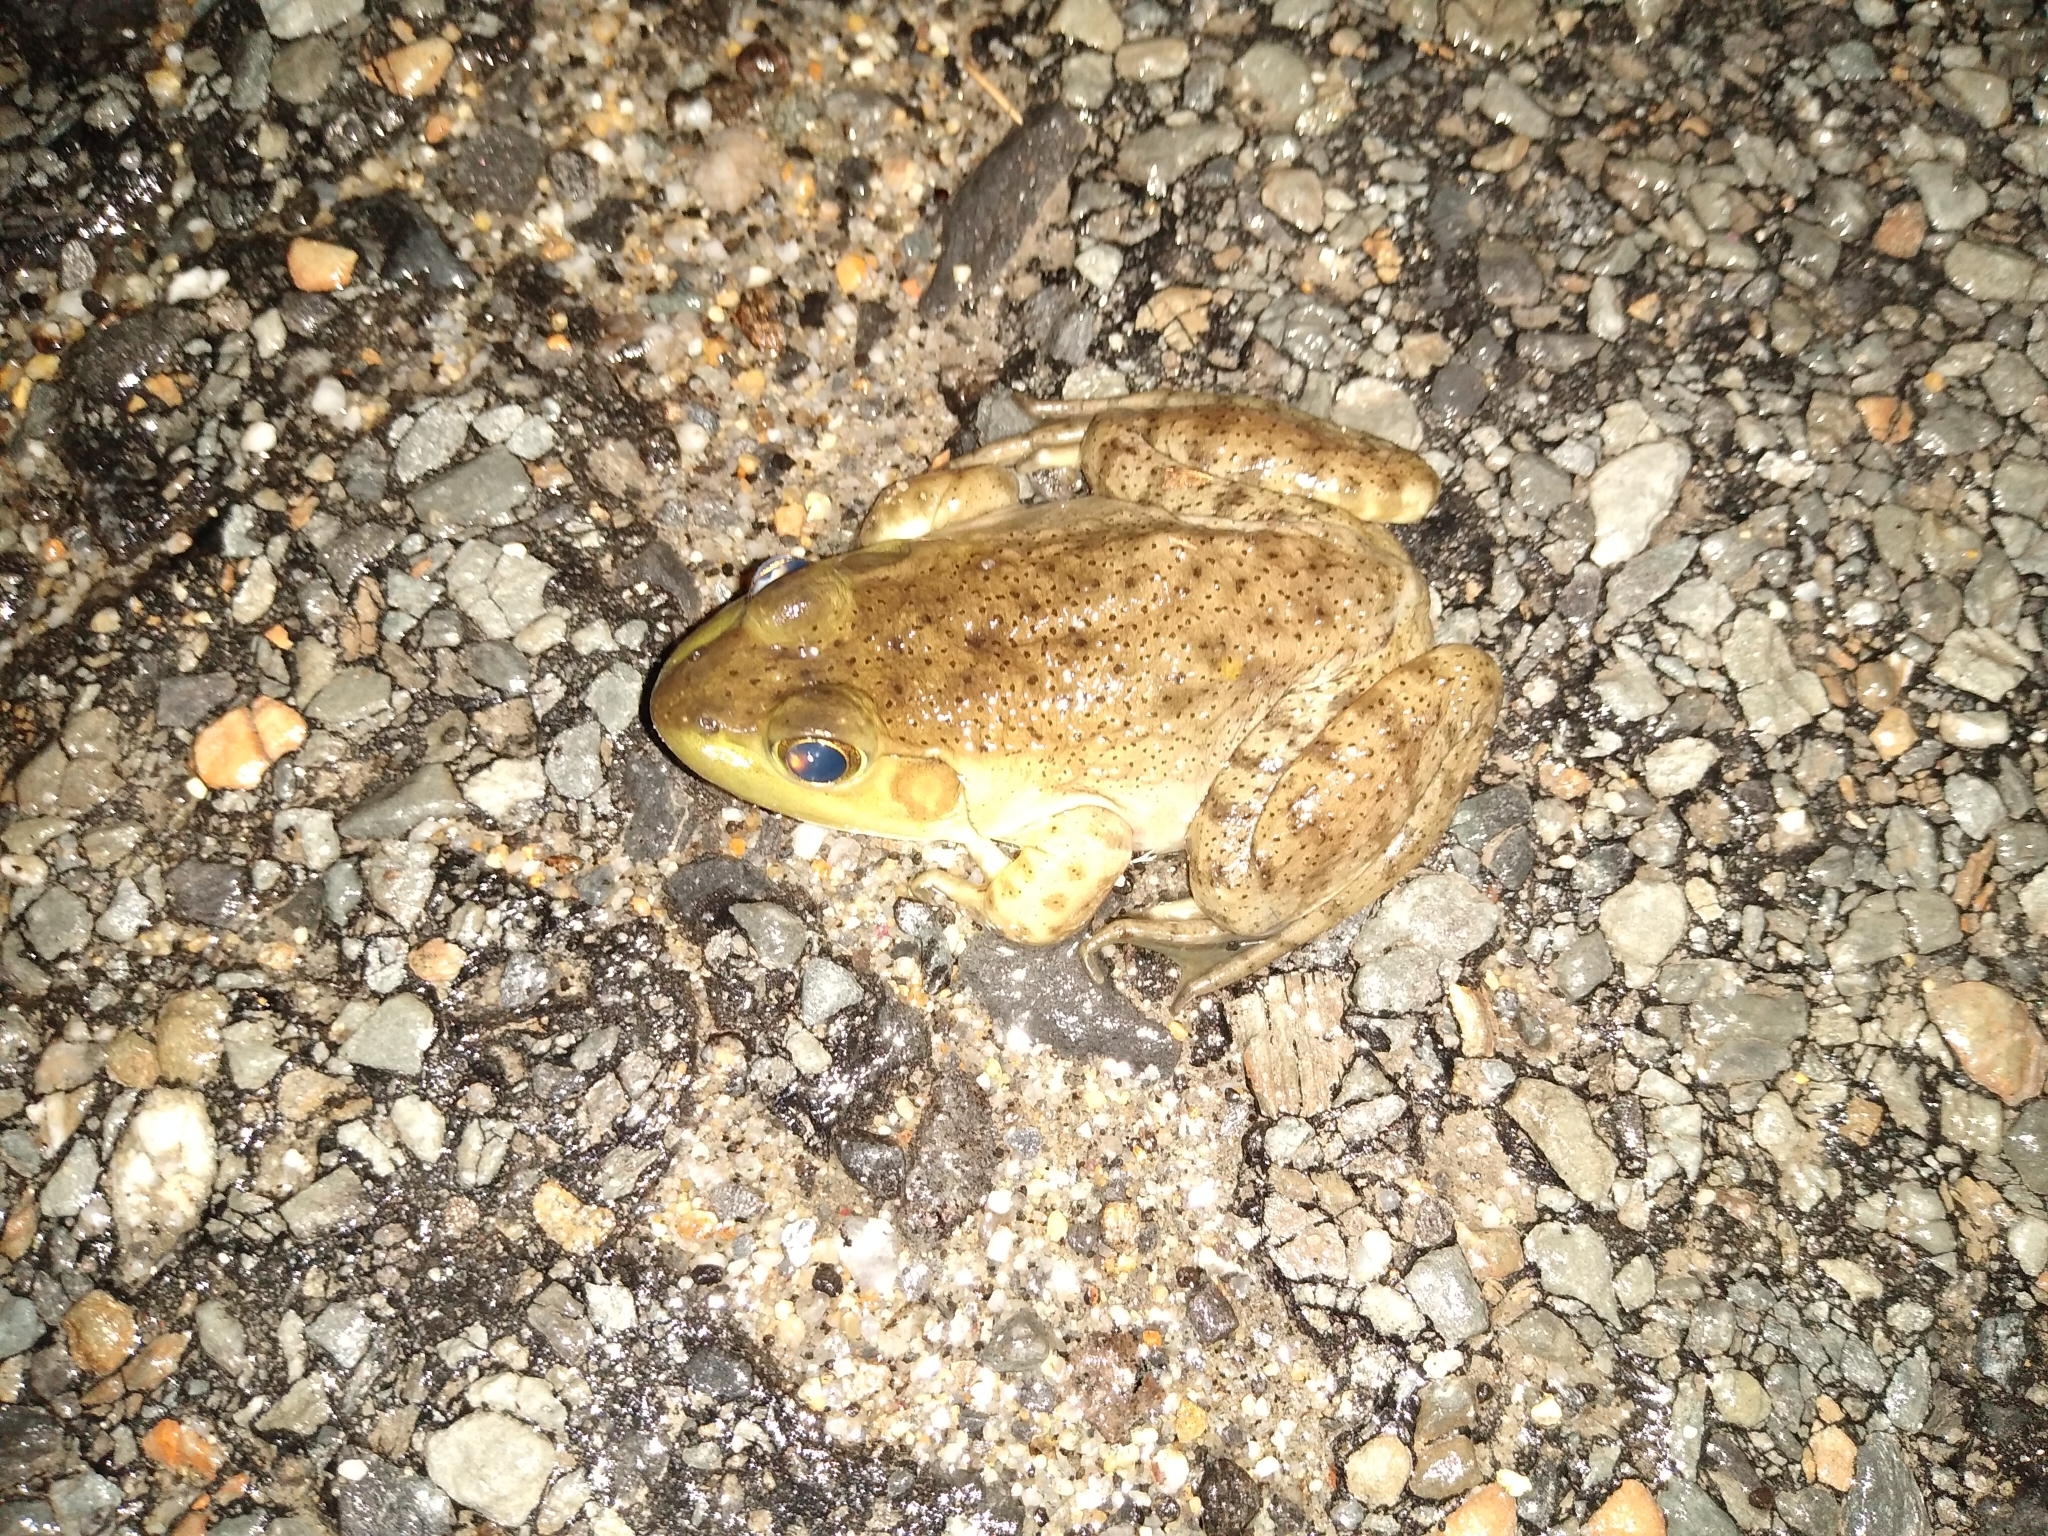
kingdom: Animalia
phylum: Chordata
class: Amphibia
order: Anura
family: Ranidae
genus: Lithobates
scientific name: Lithobates catesbeianus
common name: American bullfrog
